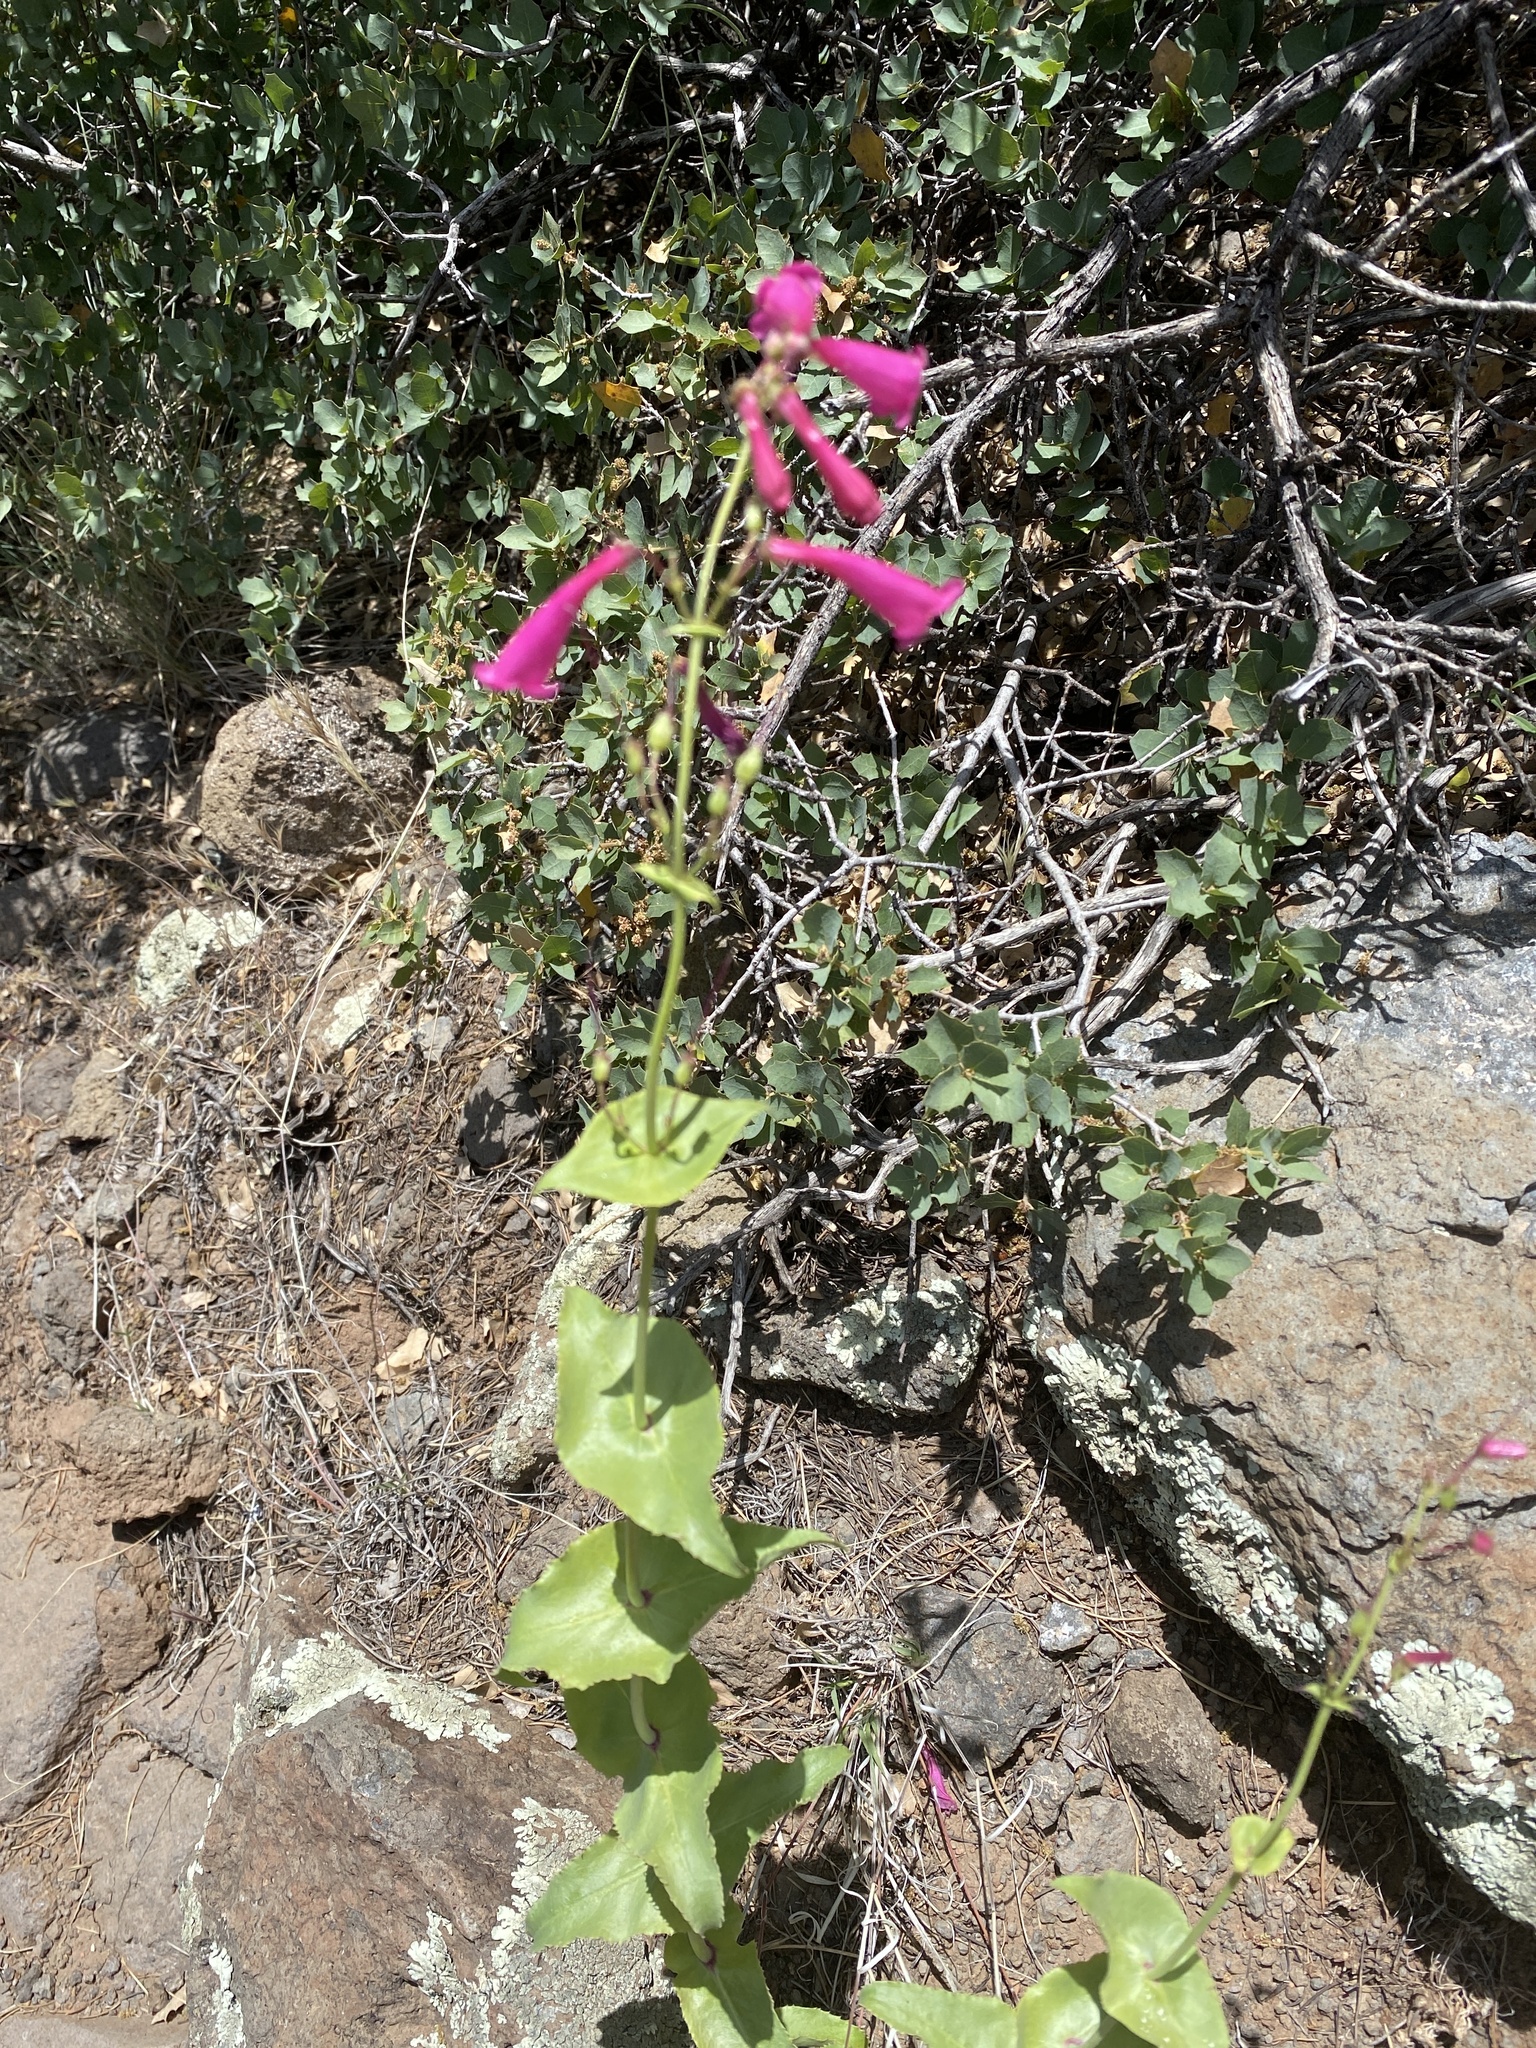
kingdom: Plantae
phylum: Tracheophyta
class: Magnoliopsida
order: Lamiales
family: Plantaginaceae
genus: Penstemon
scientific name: Penstemon pseudospectabilis
